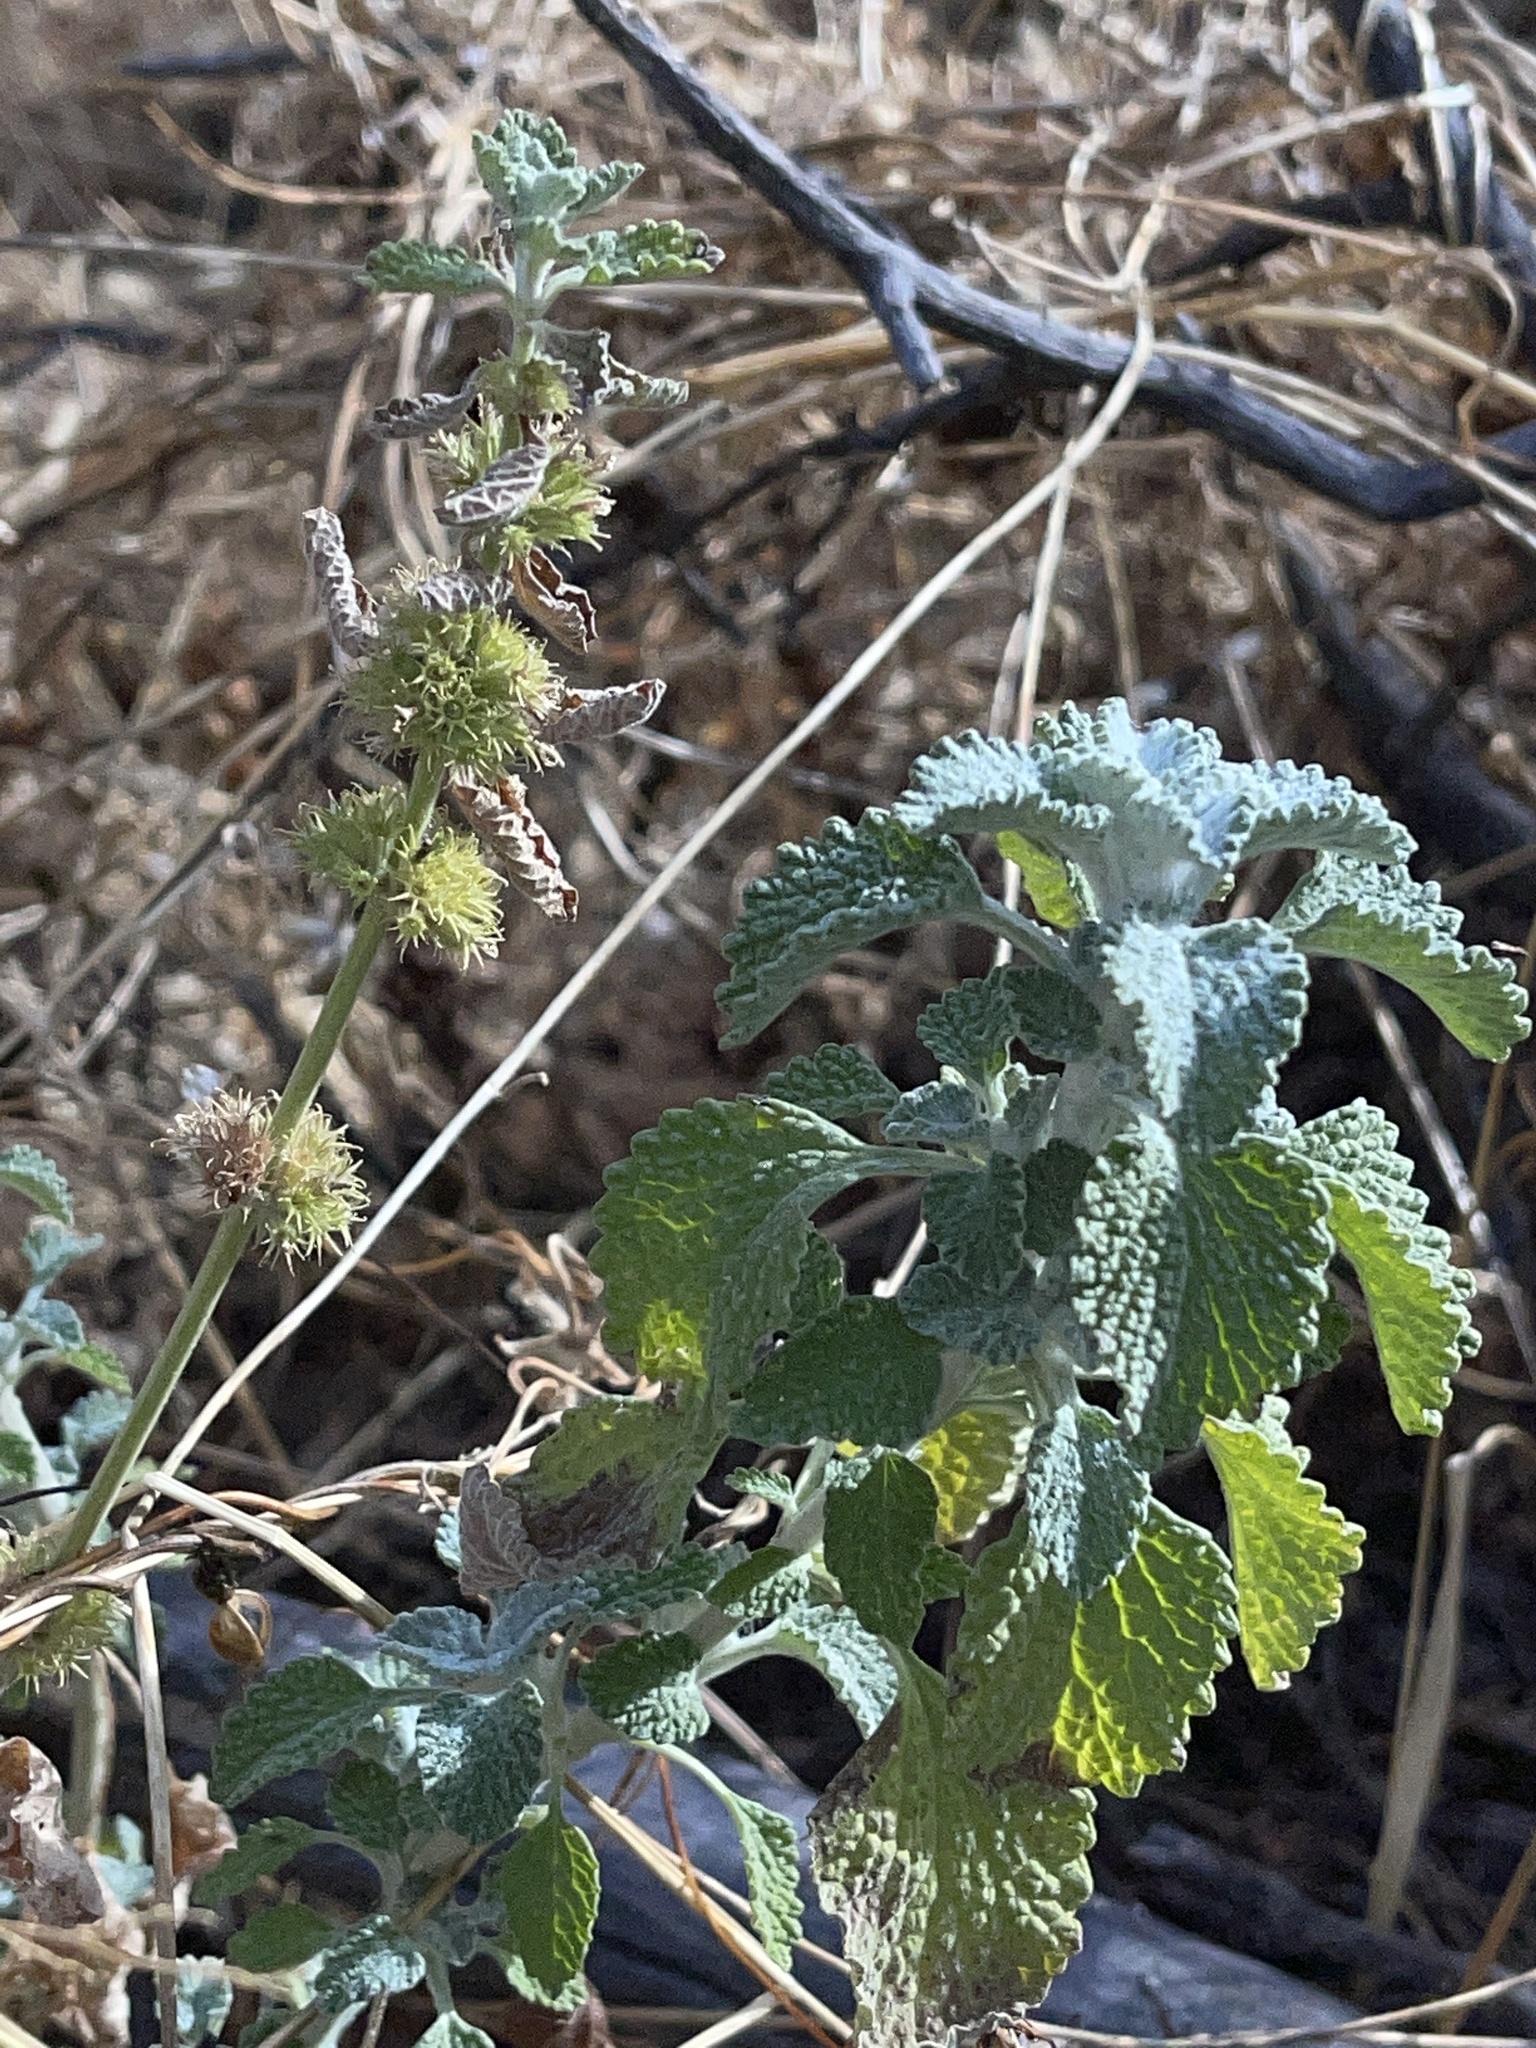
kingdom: Plantae
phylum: Tracheophyta
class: Magnoliopsida
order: Lamiales
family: Lamiaceae
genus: Marrubium
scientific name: Marrubium vulgare
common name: Horehound
